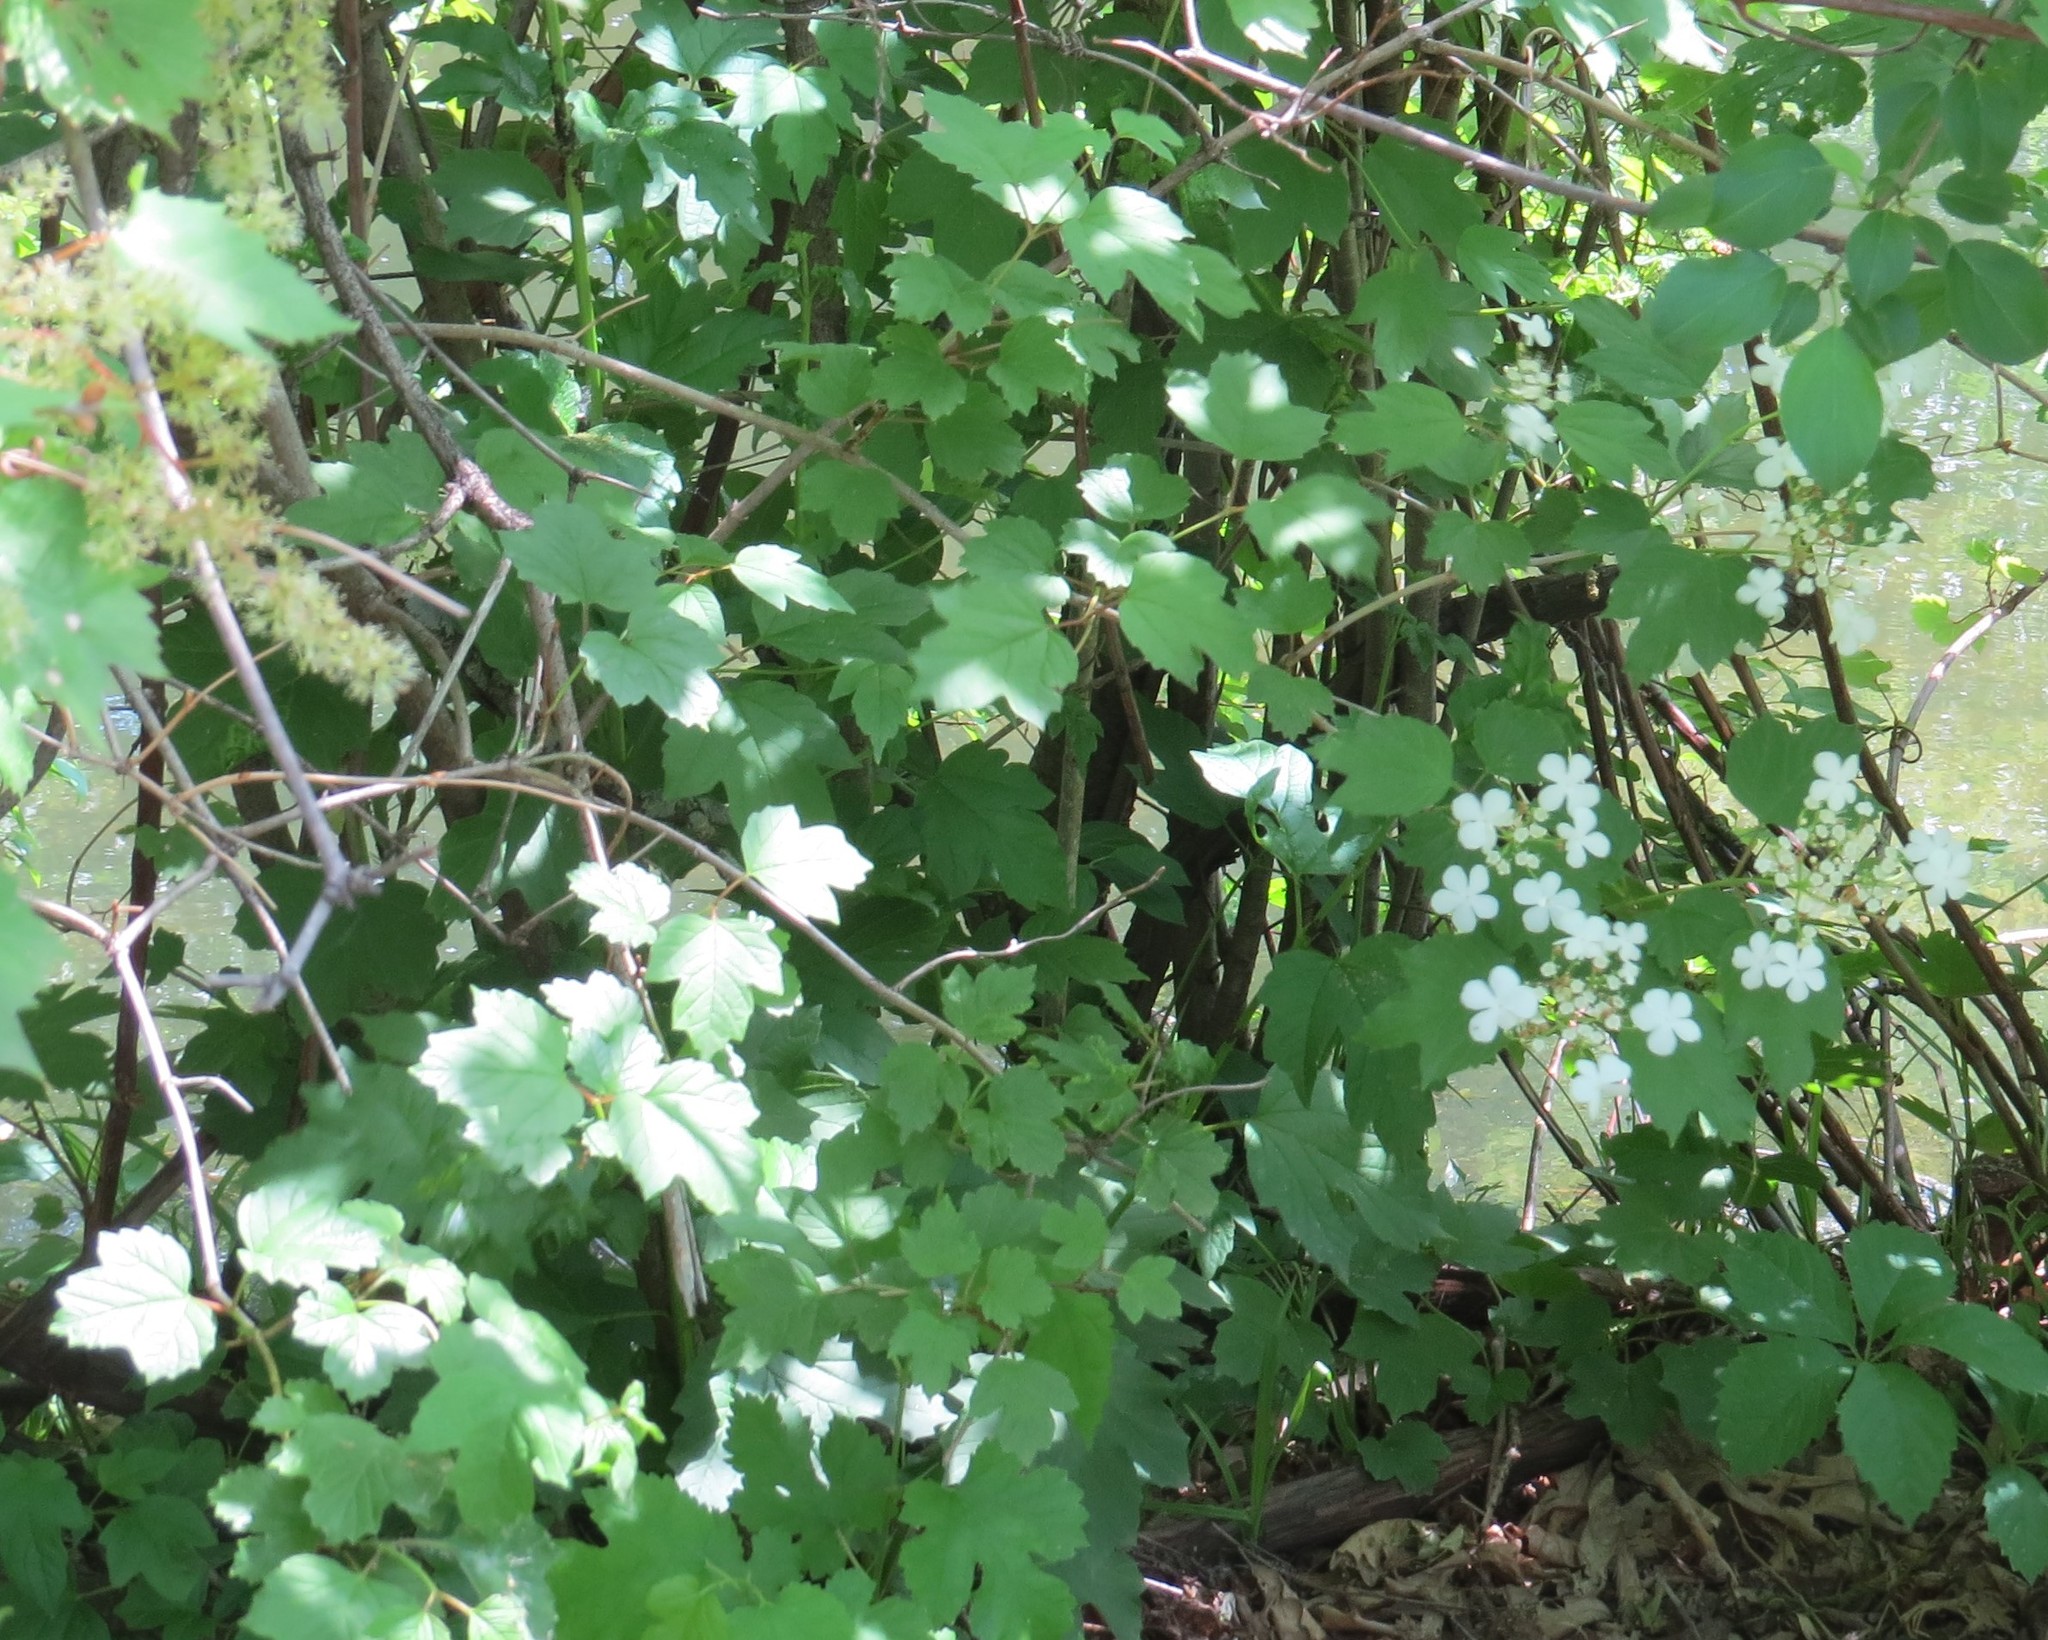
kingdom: Plantae
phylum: Tracheophyta
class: Magnoliopsida
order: Dipsacales
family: Viburnaceae
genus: Viburnum
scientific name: Viburnum opulus
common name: Guelder-rose
